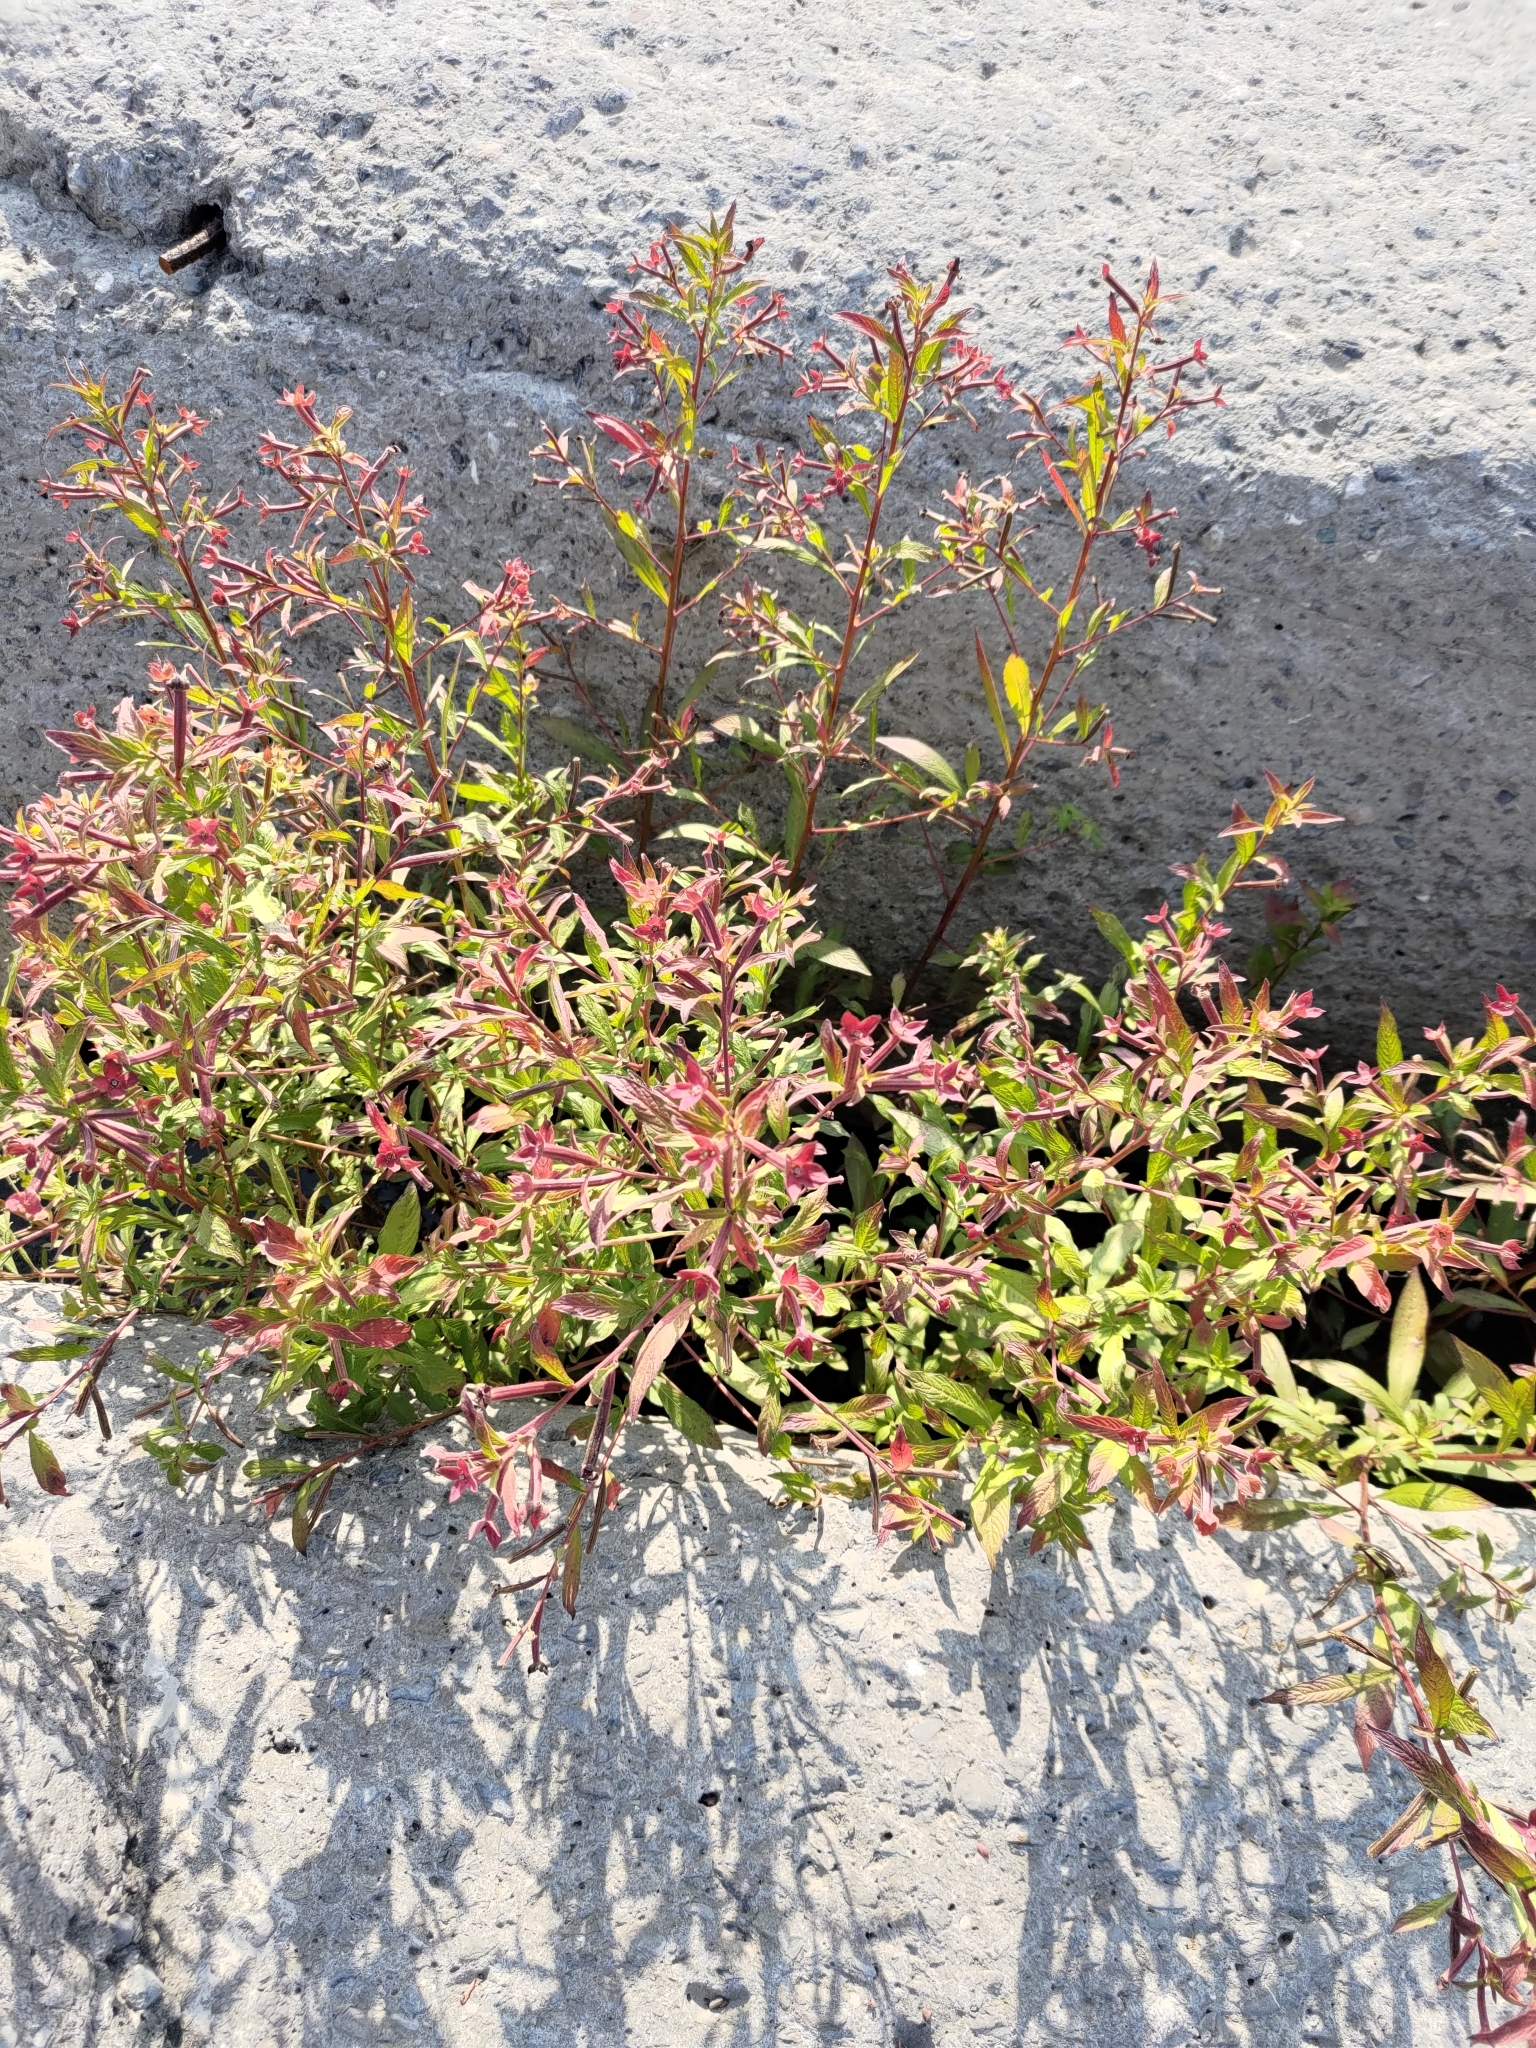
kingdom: Plantae
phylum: Tracheophyta
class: Magnoliopsida
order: Myrtales
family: Onagraceae
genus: Ludwigia
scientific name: Ludwigia octovalvis
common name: Water-primrose
